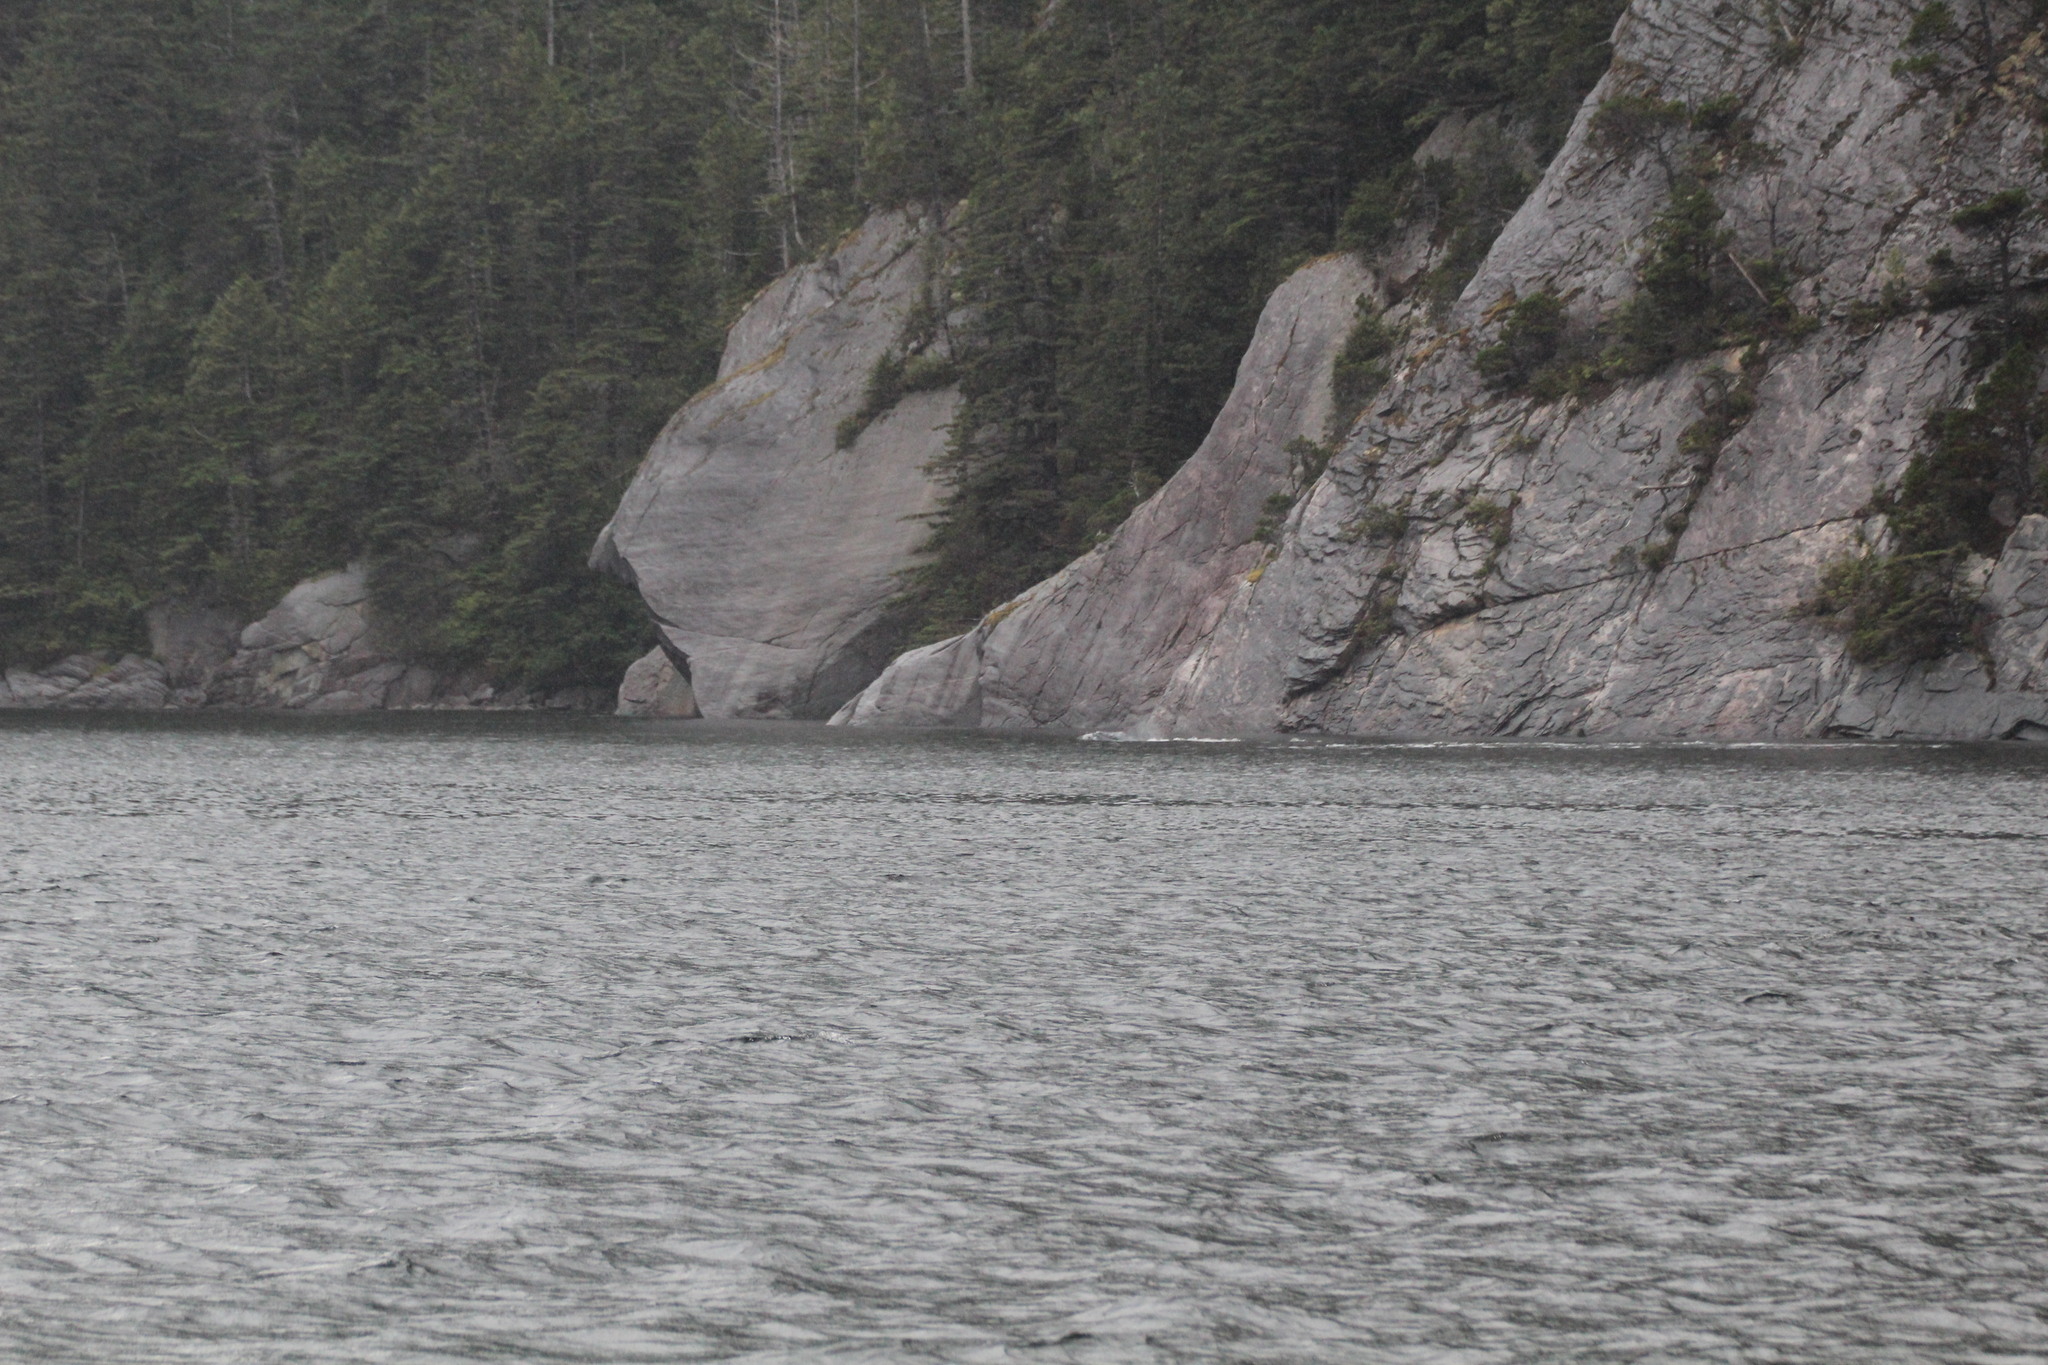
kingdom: Animalia
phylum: Chordata
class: Mammalia
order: Cetacea
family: Balaenopteridae
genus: Megaptera
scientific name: Megaptera novaeangliae
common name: Humpback whale
